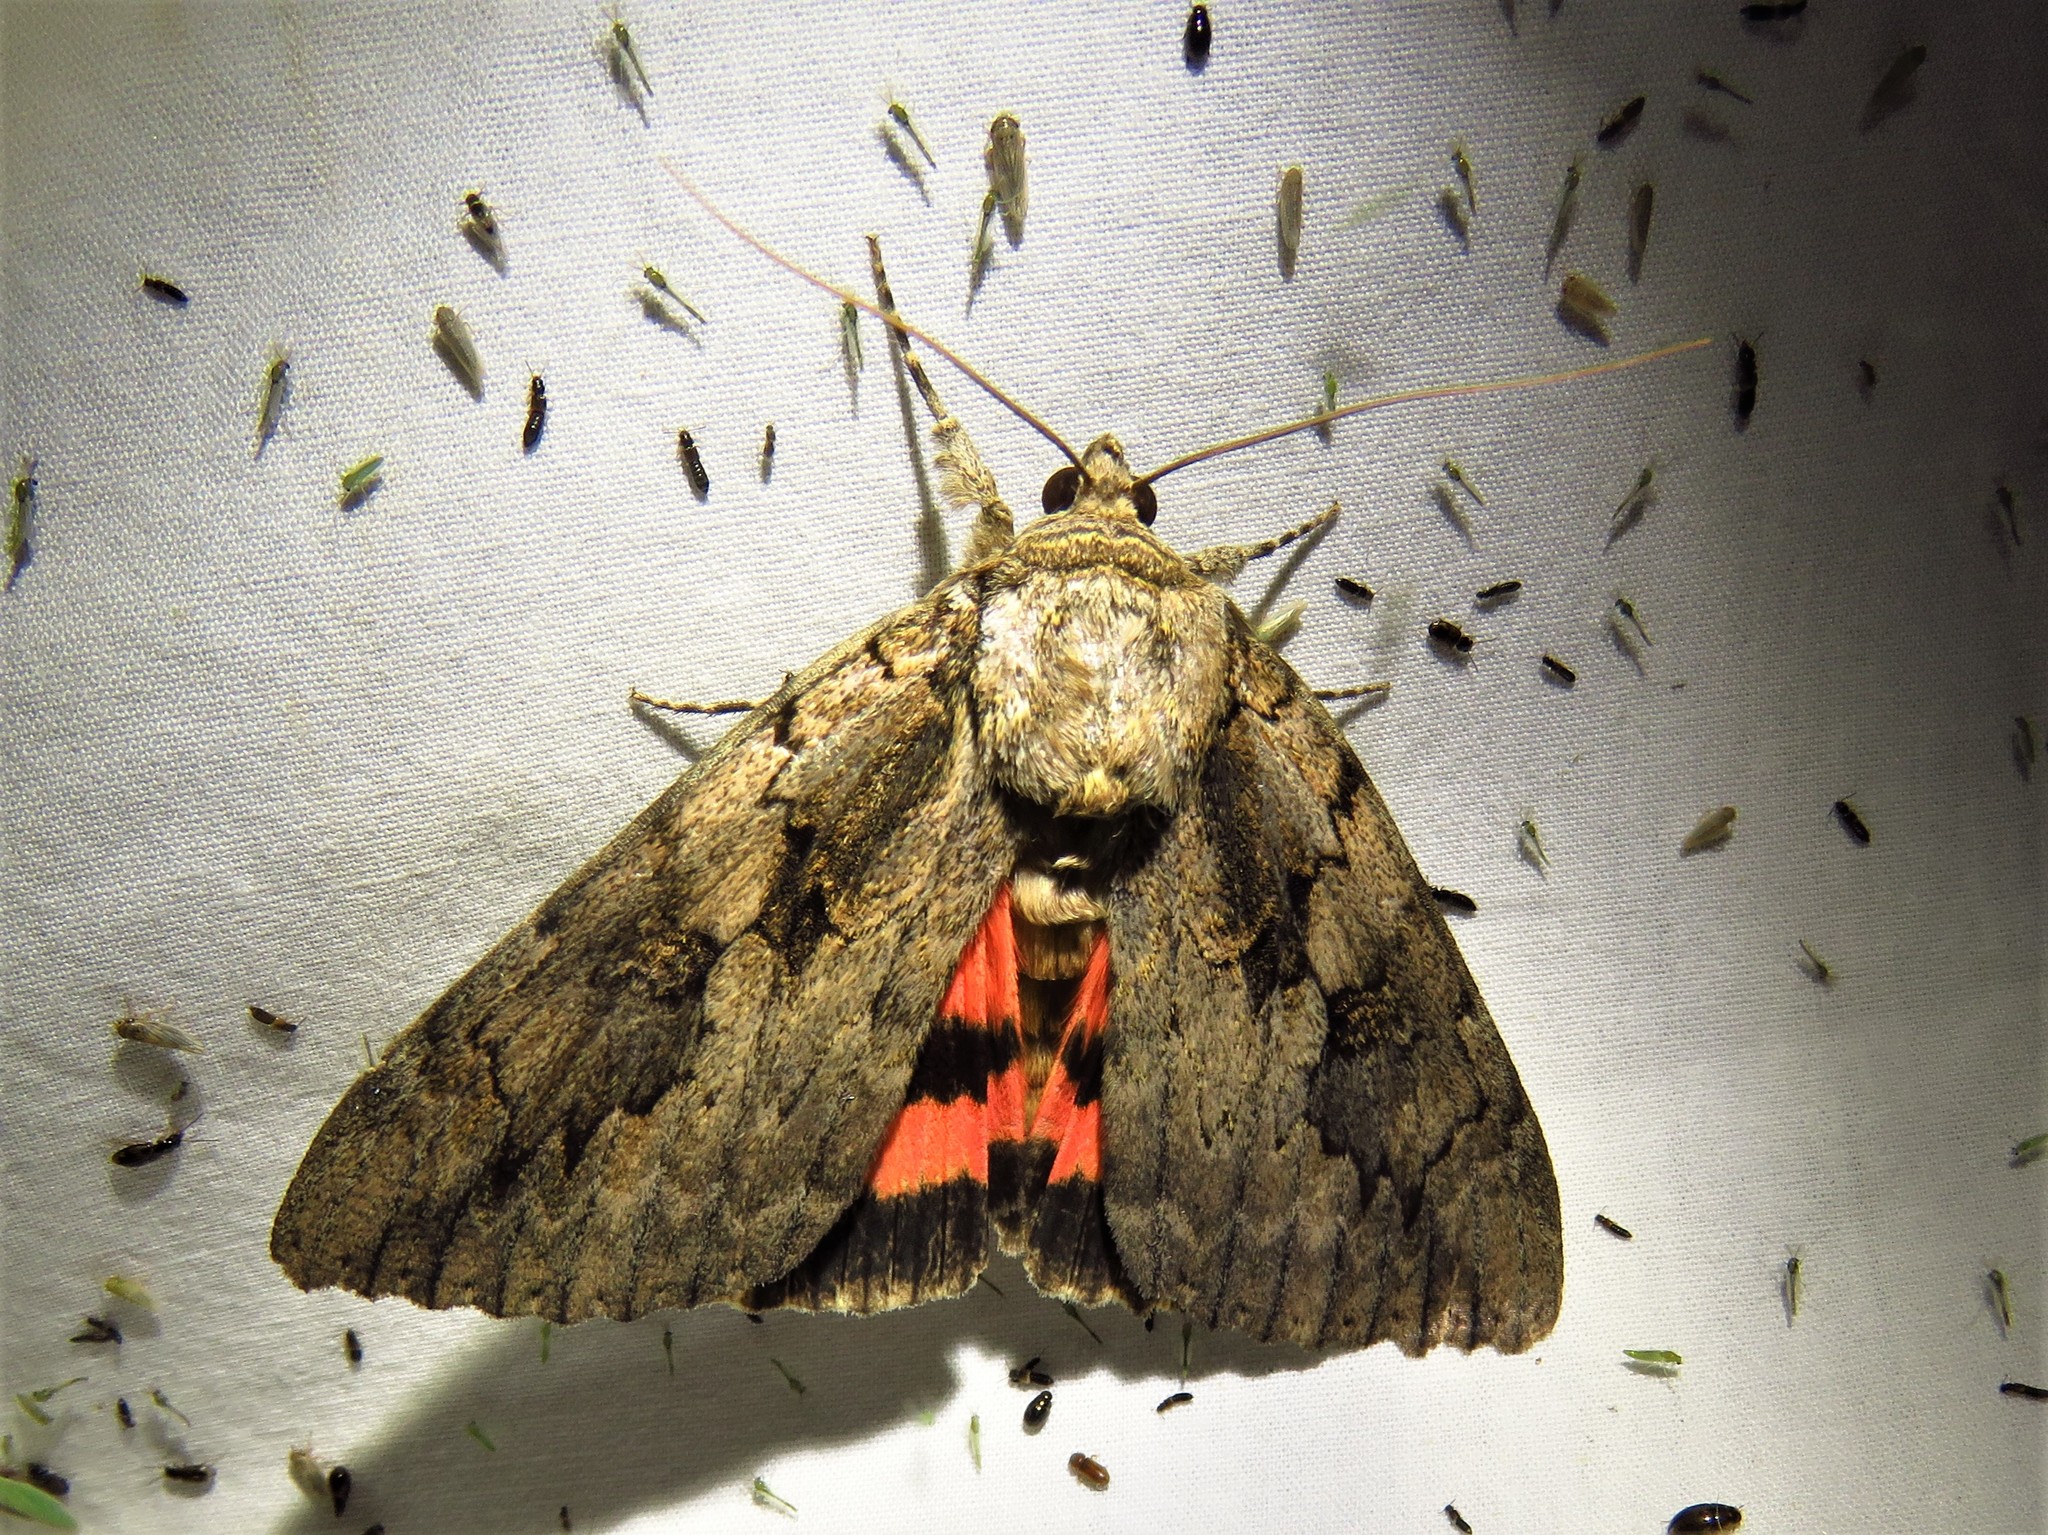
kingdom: Animalia
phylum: Arthropoda
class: Insecta
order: Lepidoptera
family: Erebidae
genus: Catocala
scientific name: Catocala amatrix
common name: Sweetheart underwing
